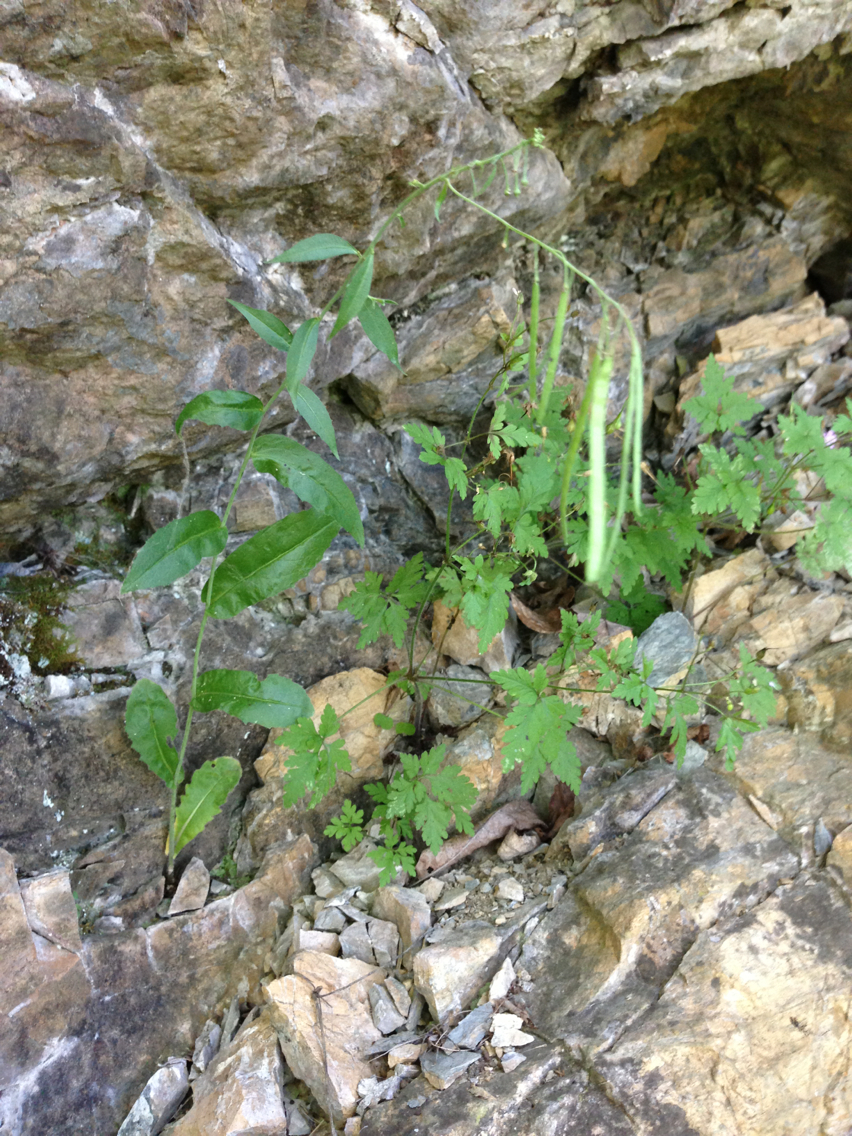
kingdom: Plantae
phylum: Tracheophyta
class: Magnoliopsida
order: Brassicales
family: Brassicaceae
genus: Borodinia
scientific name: Borodinia canadensis
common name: Sicklepod
